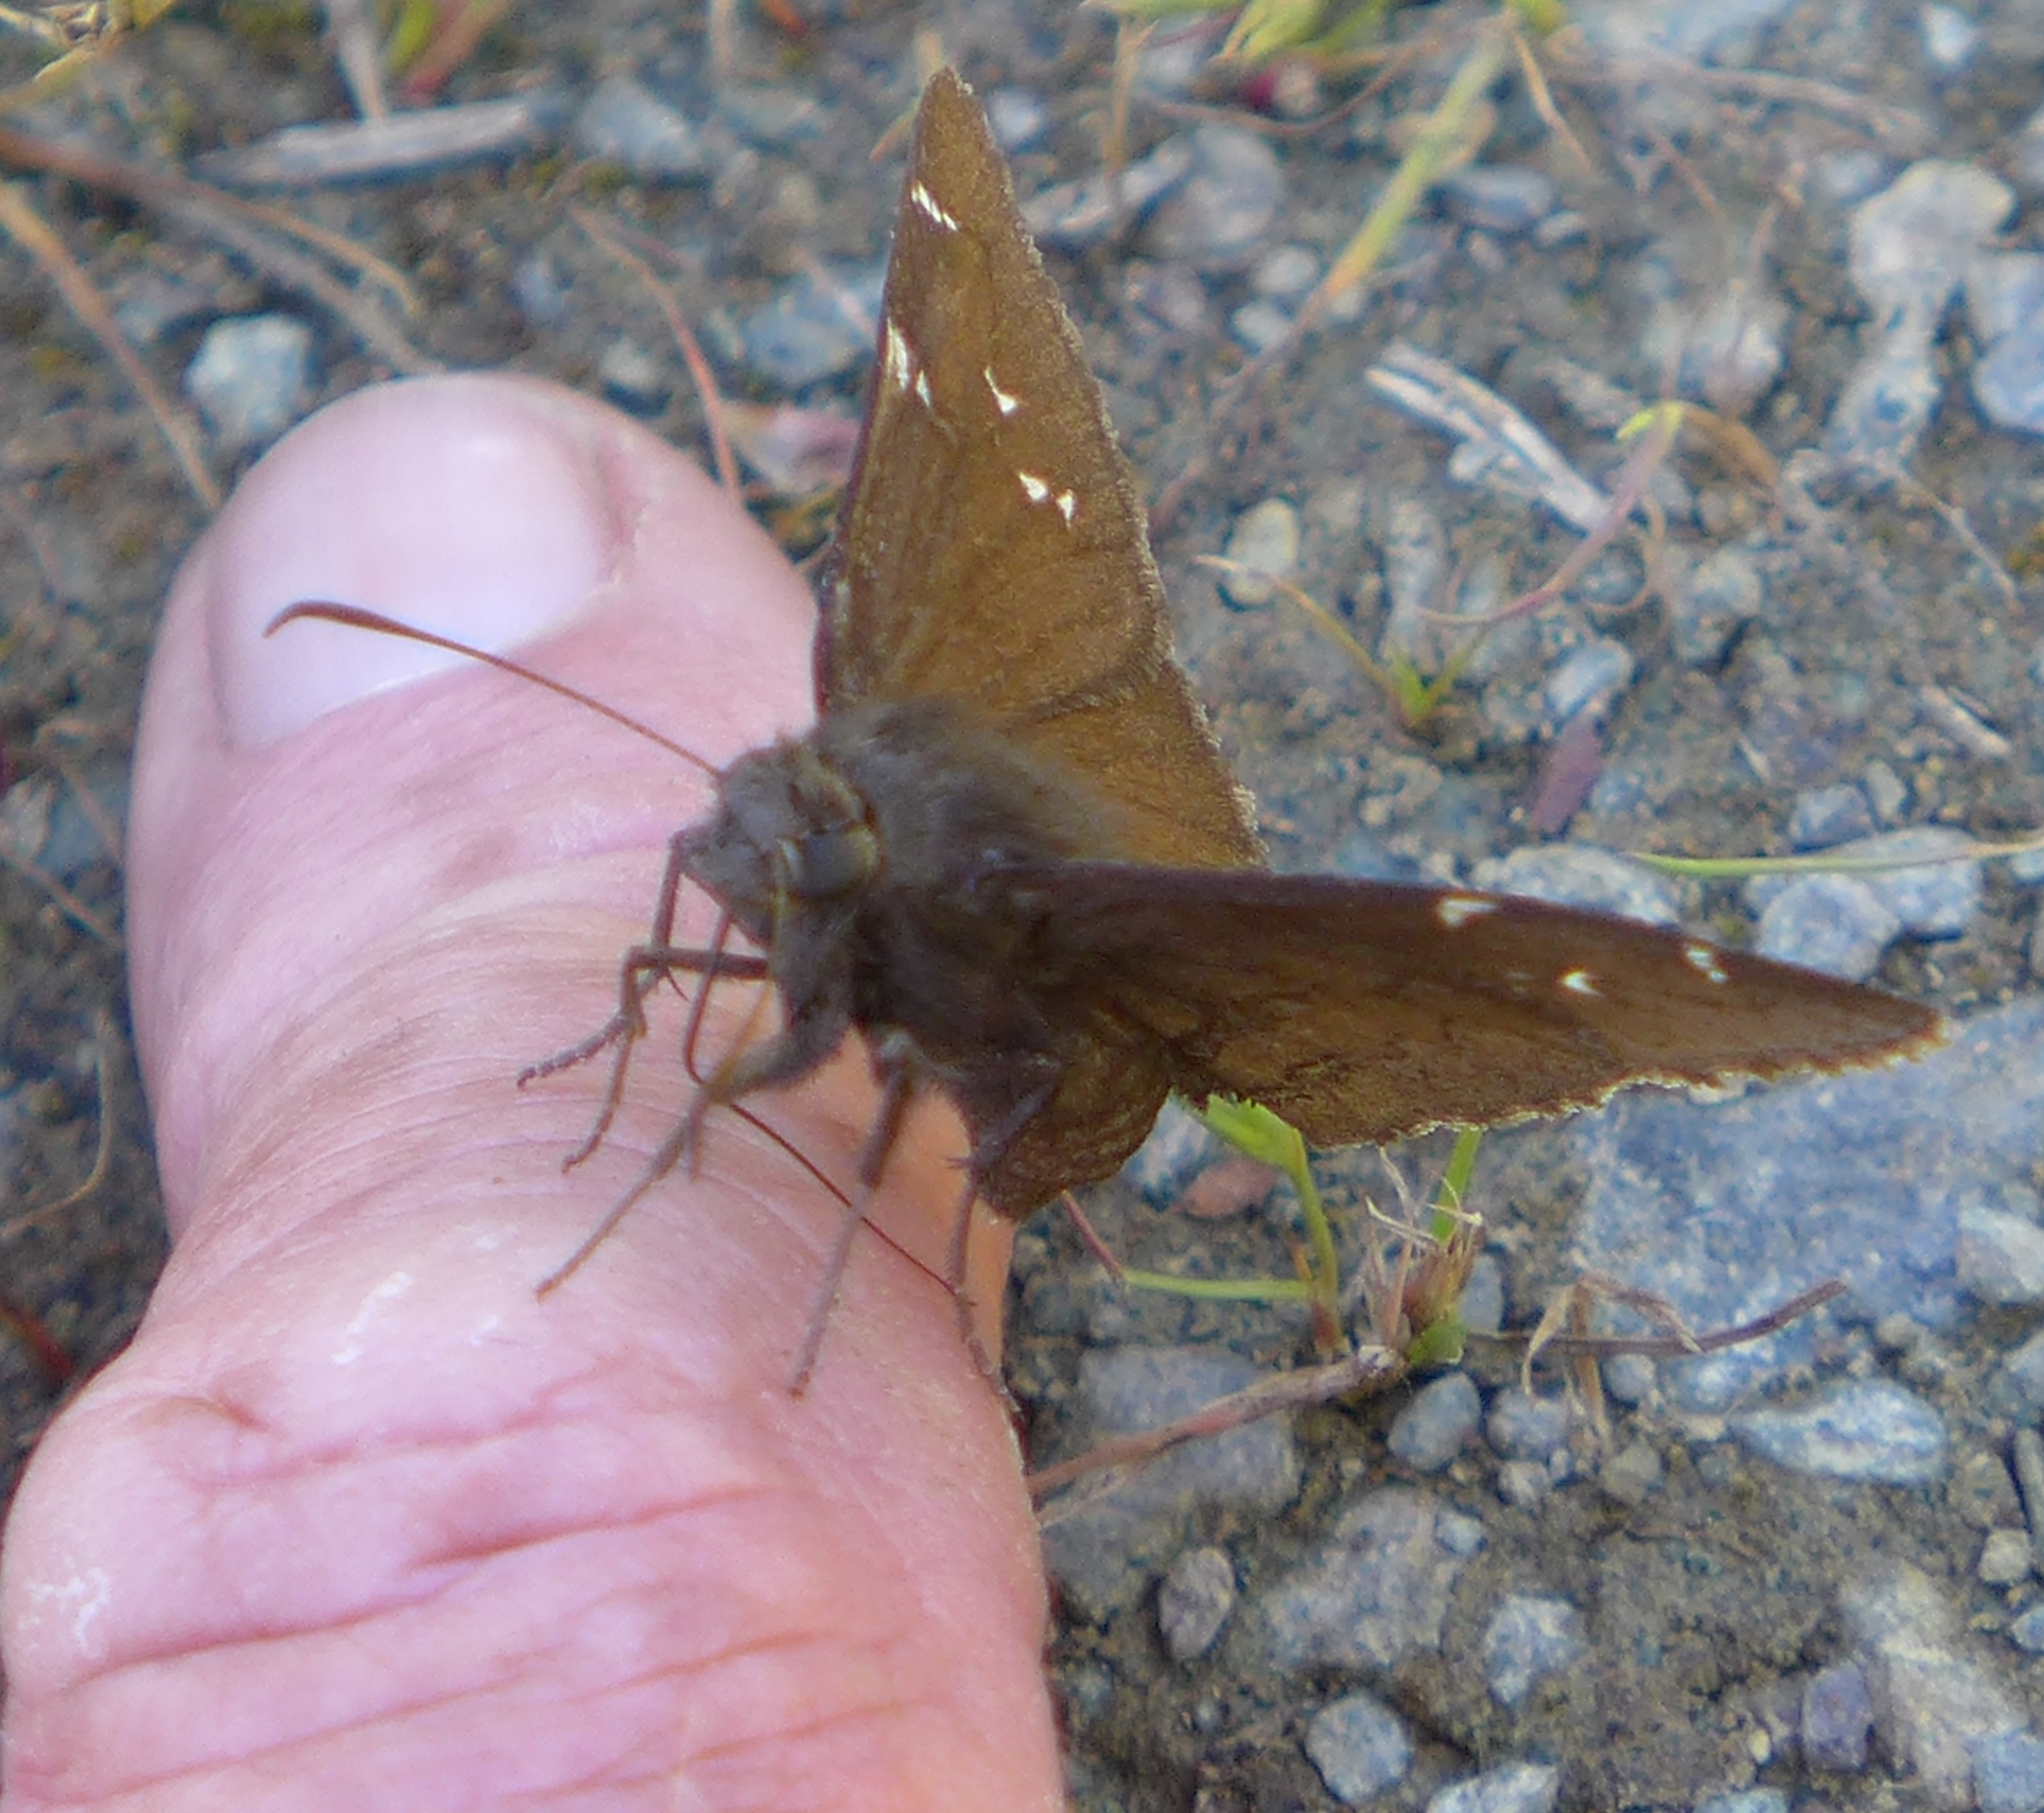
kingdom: Animalia
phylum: Arthropoda
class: Insecta
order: Lepidoptera
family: Hesperiidae
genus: Thorybes
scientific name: Thorybes pylades
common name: Northern cloudywing
